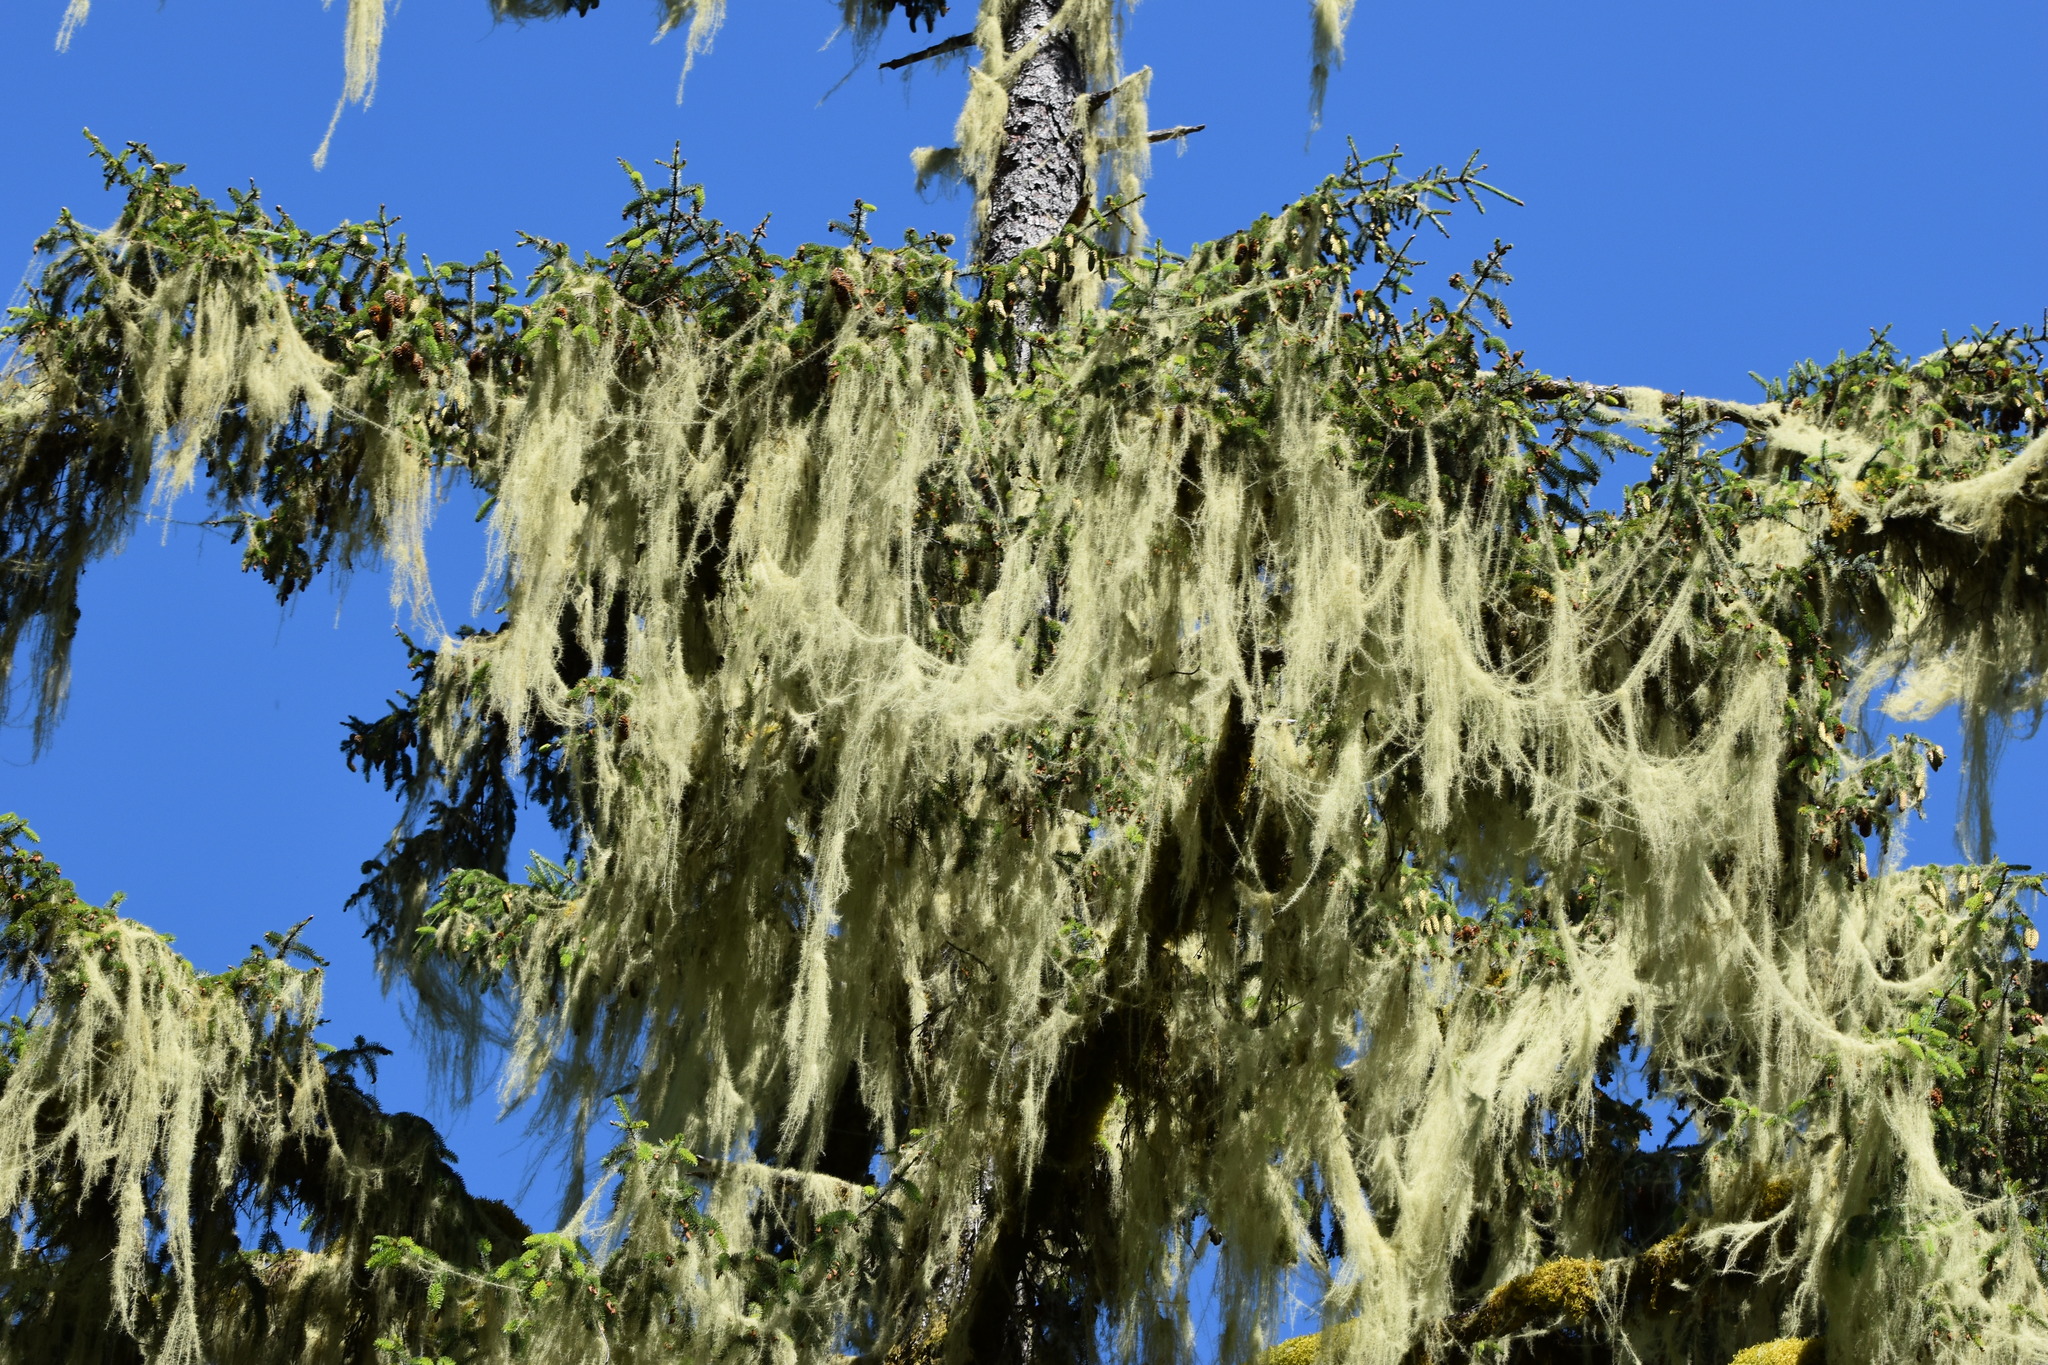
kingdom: Fungi
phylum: Ascomycota
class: Lecanoromycetes
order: Lecanorales
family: Parmeliaceae
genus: Dolichousnea
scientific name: Dolichousnea longissima
